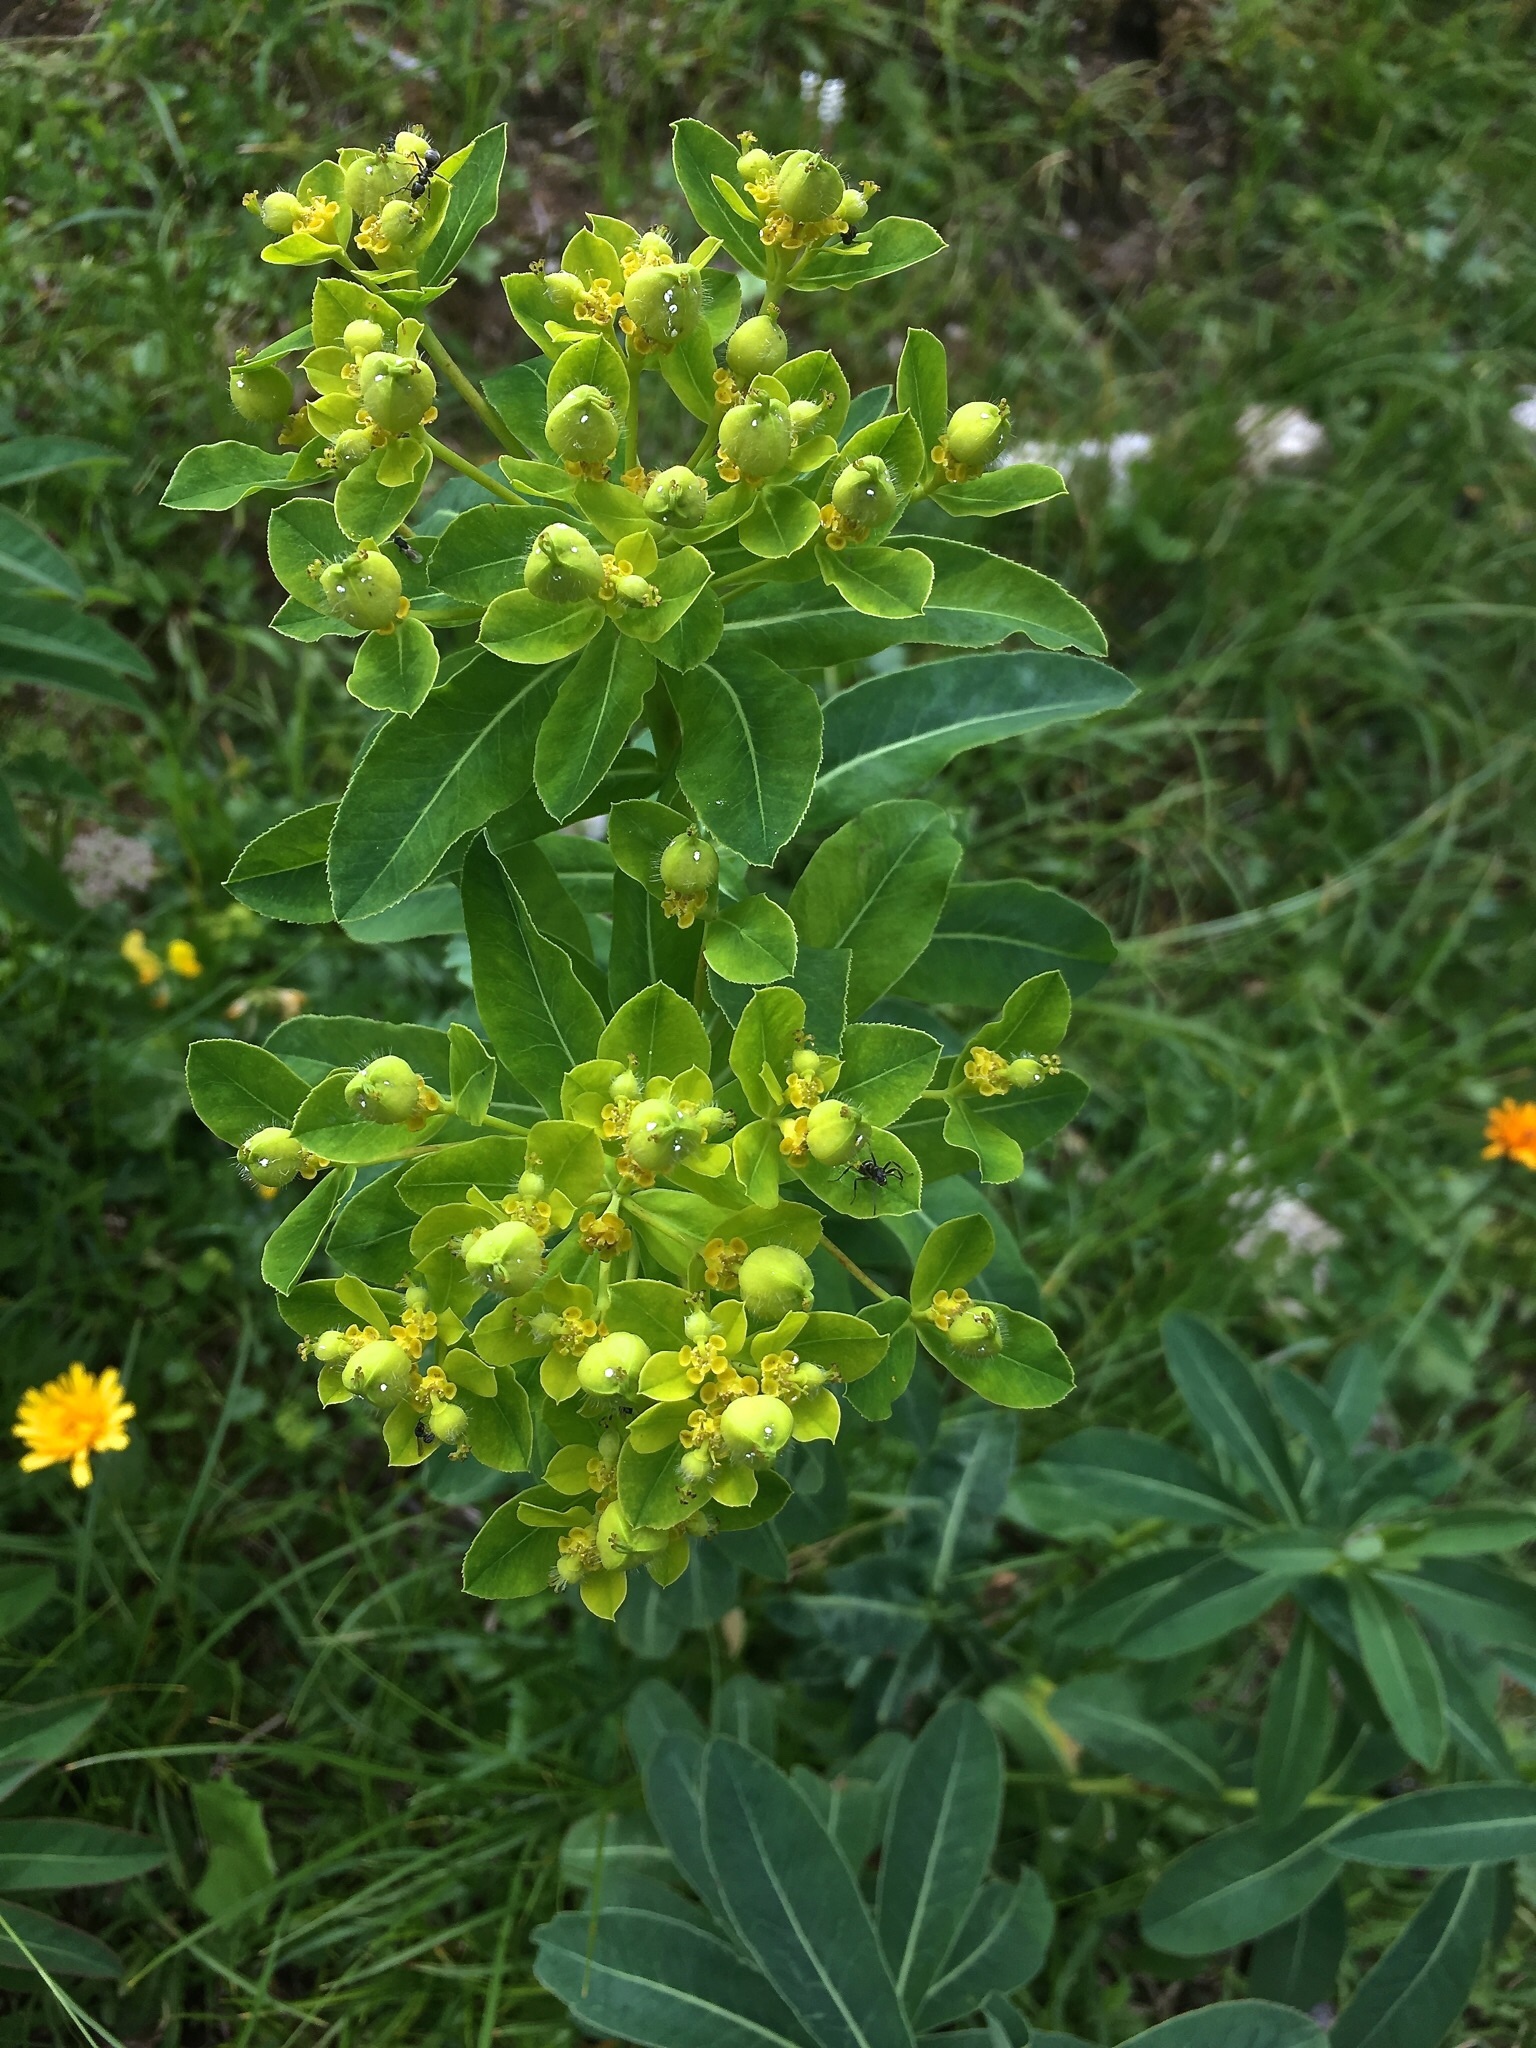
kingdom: Plantae
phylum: Tracheophyta
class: Magnoliopsida
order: Malpighiales
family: Euphorbiaceae
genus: Euphorbia
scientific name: Euphorbia austriaca
